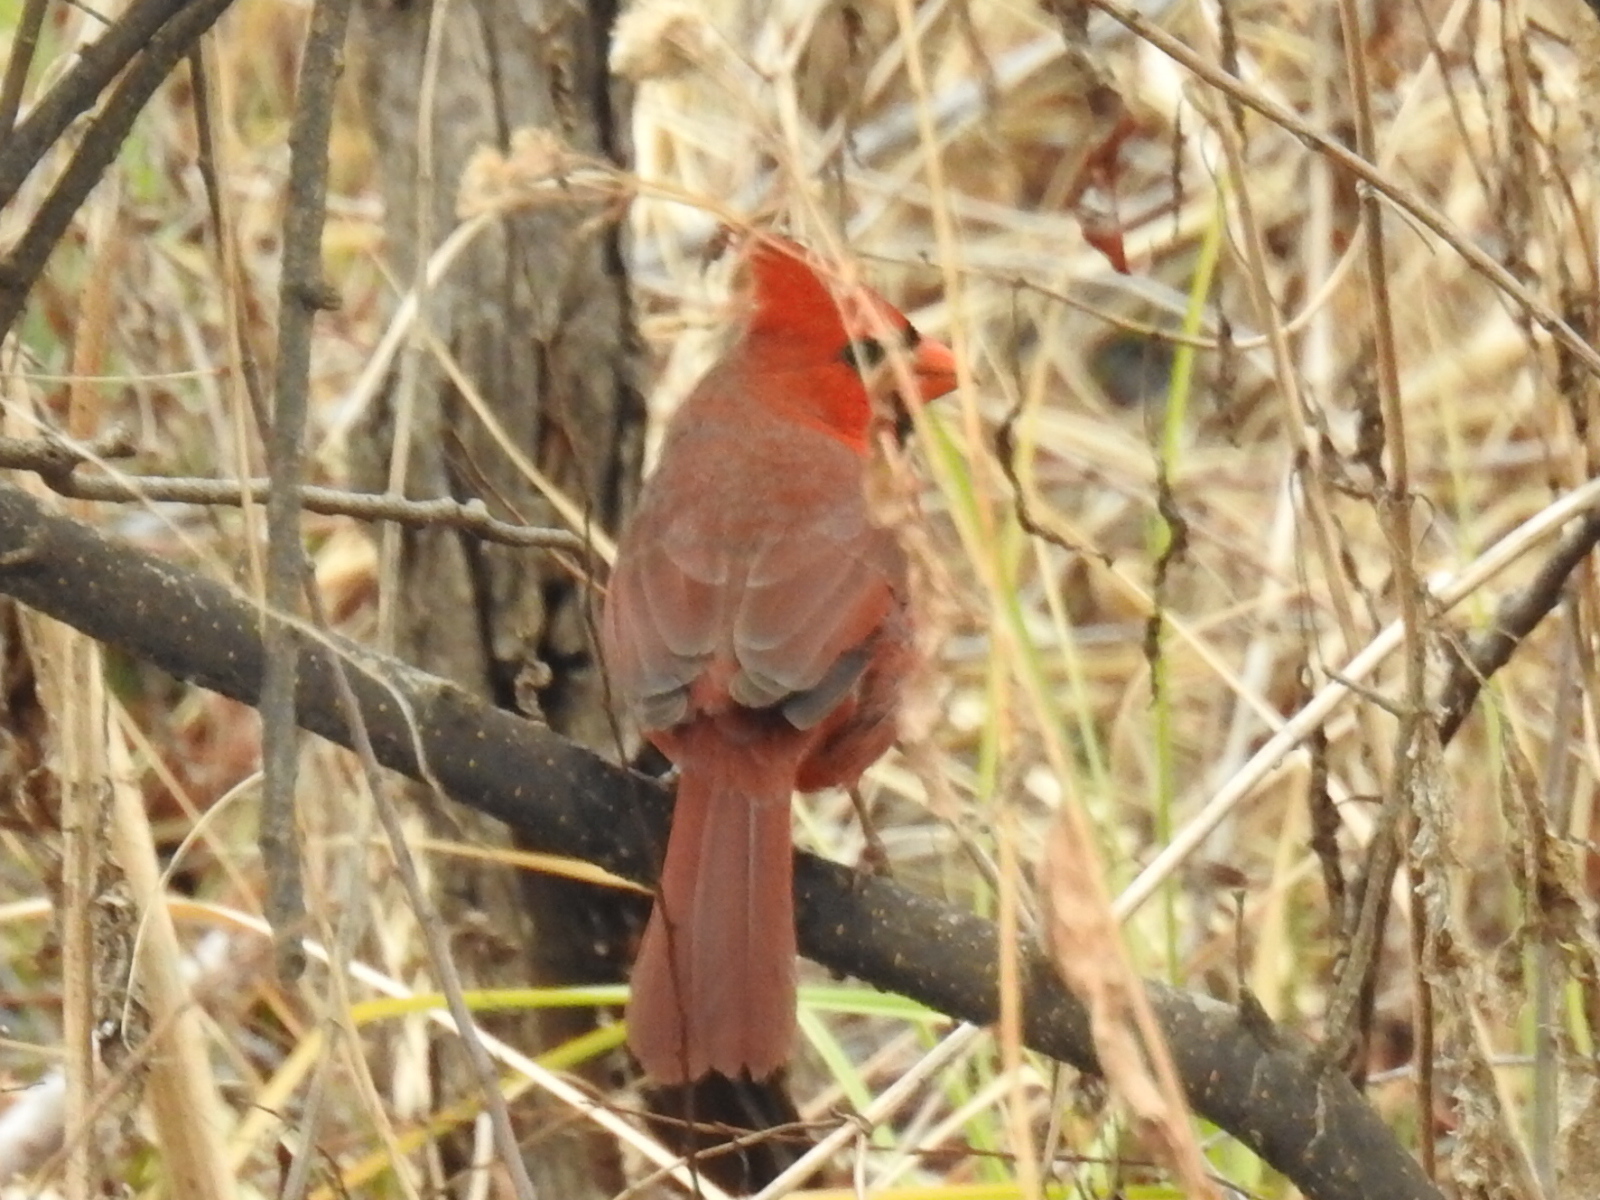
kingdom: Animalia
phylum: Chordata
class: Aves
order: Passeriformes
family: Cardinalidae
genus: Cardinalis
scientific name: Cardinalis cardinalis
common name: Northern cardinal
